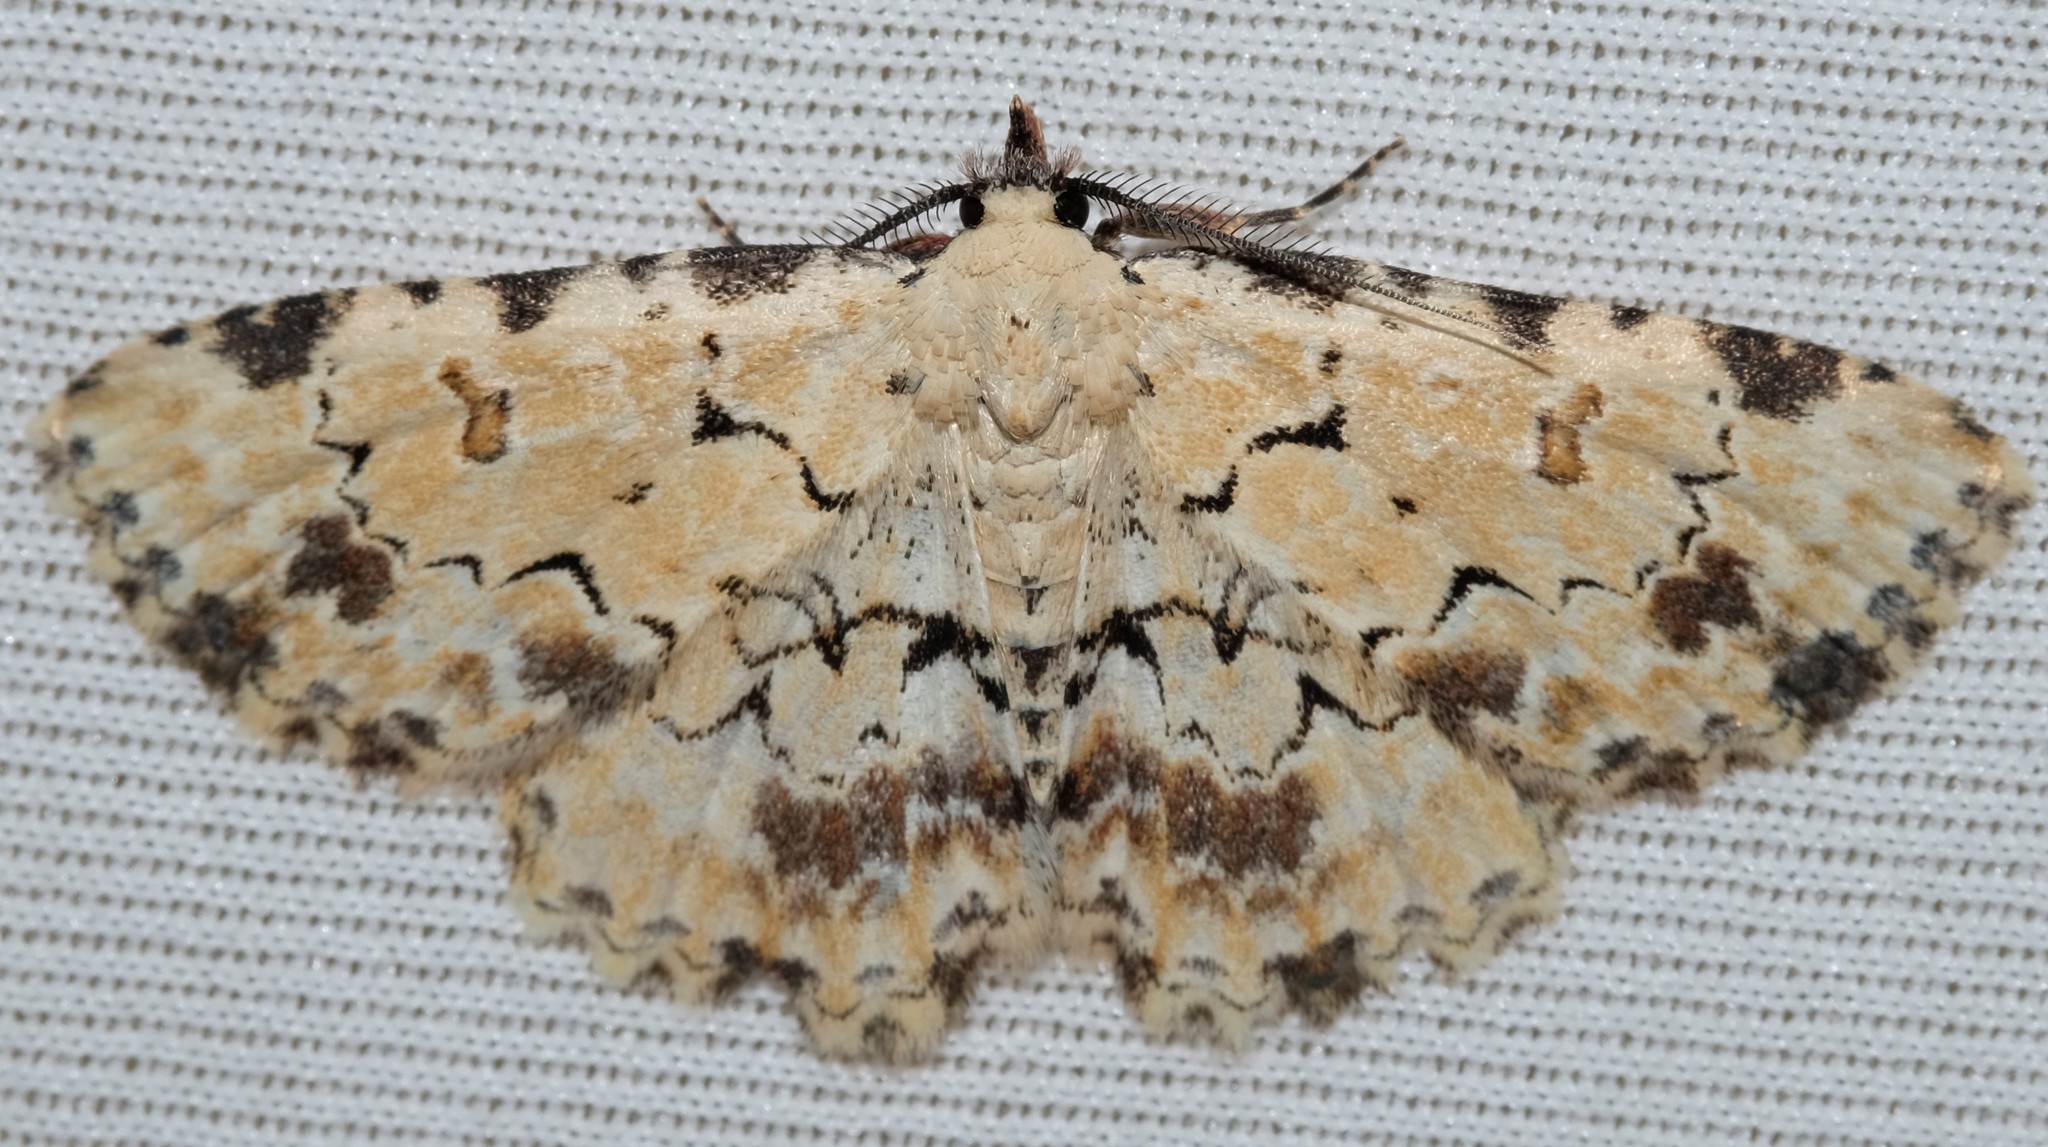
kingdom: Animalia
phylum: Arthropoda
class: Insecta
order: Lepidoptera
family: Erebidae
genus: Sandava
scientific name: Sandava scitisignata
